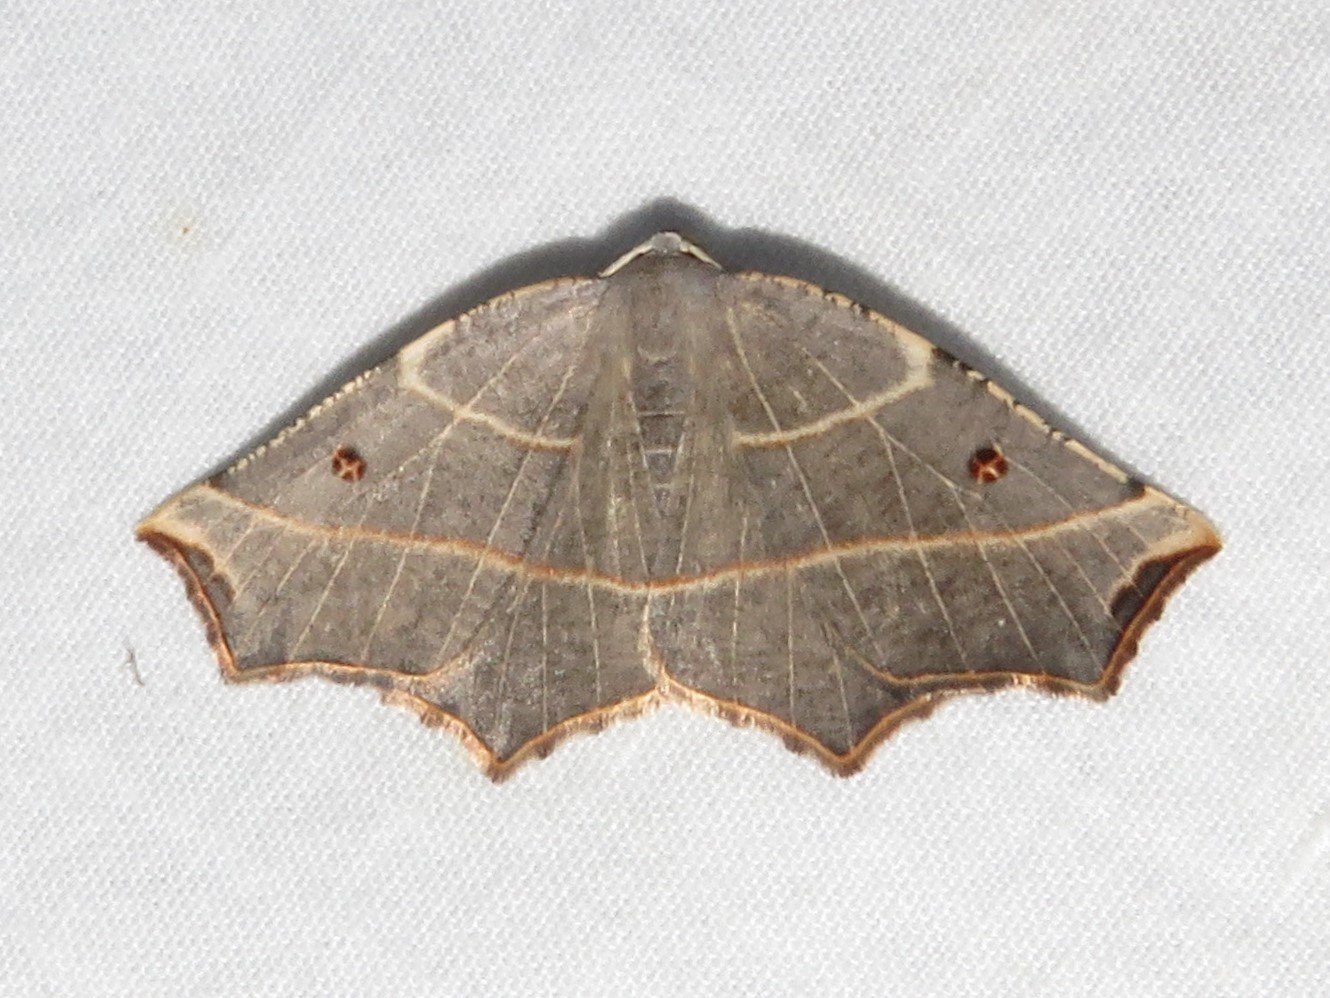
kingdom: Animalia
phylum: Arthropoda
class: Insecta
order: Lepidoptera
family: Geometridae
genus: Metanema
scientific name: Metanema inatomaria
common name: Pale metanema
